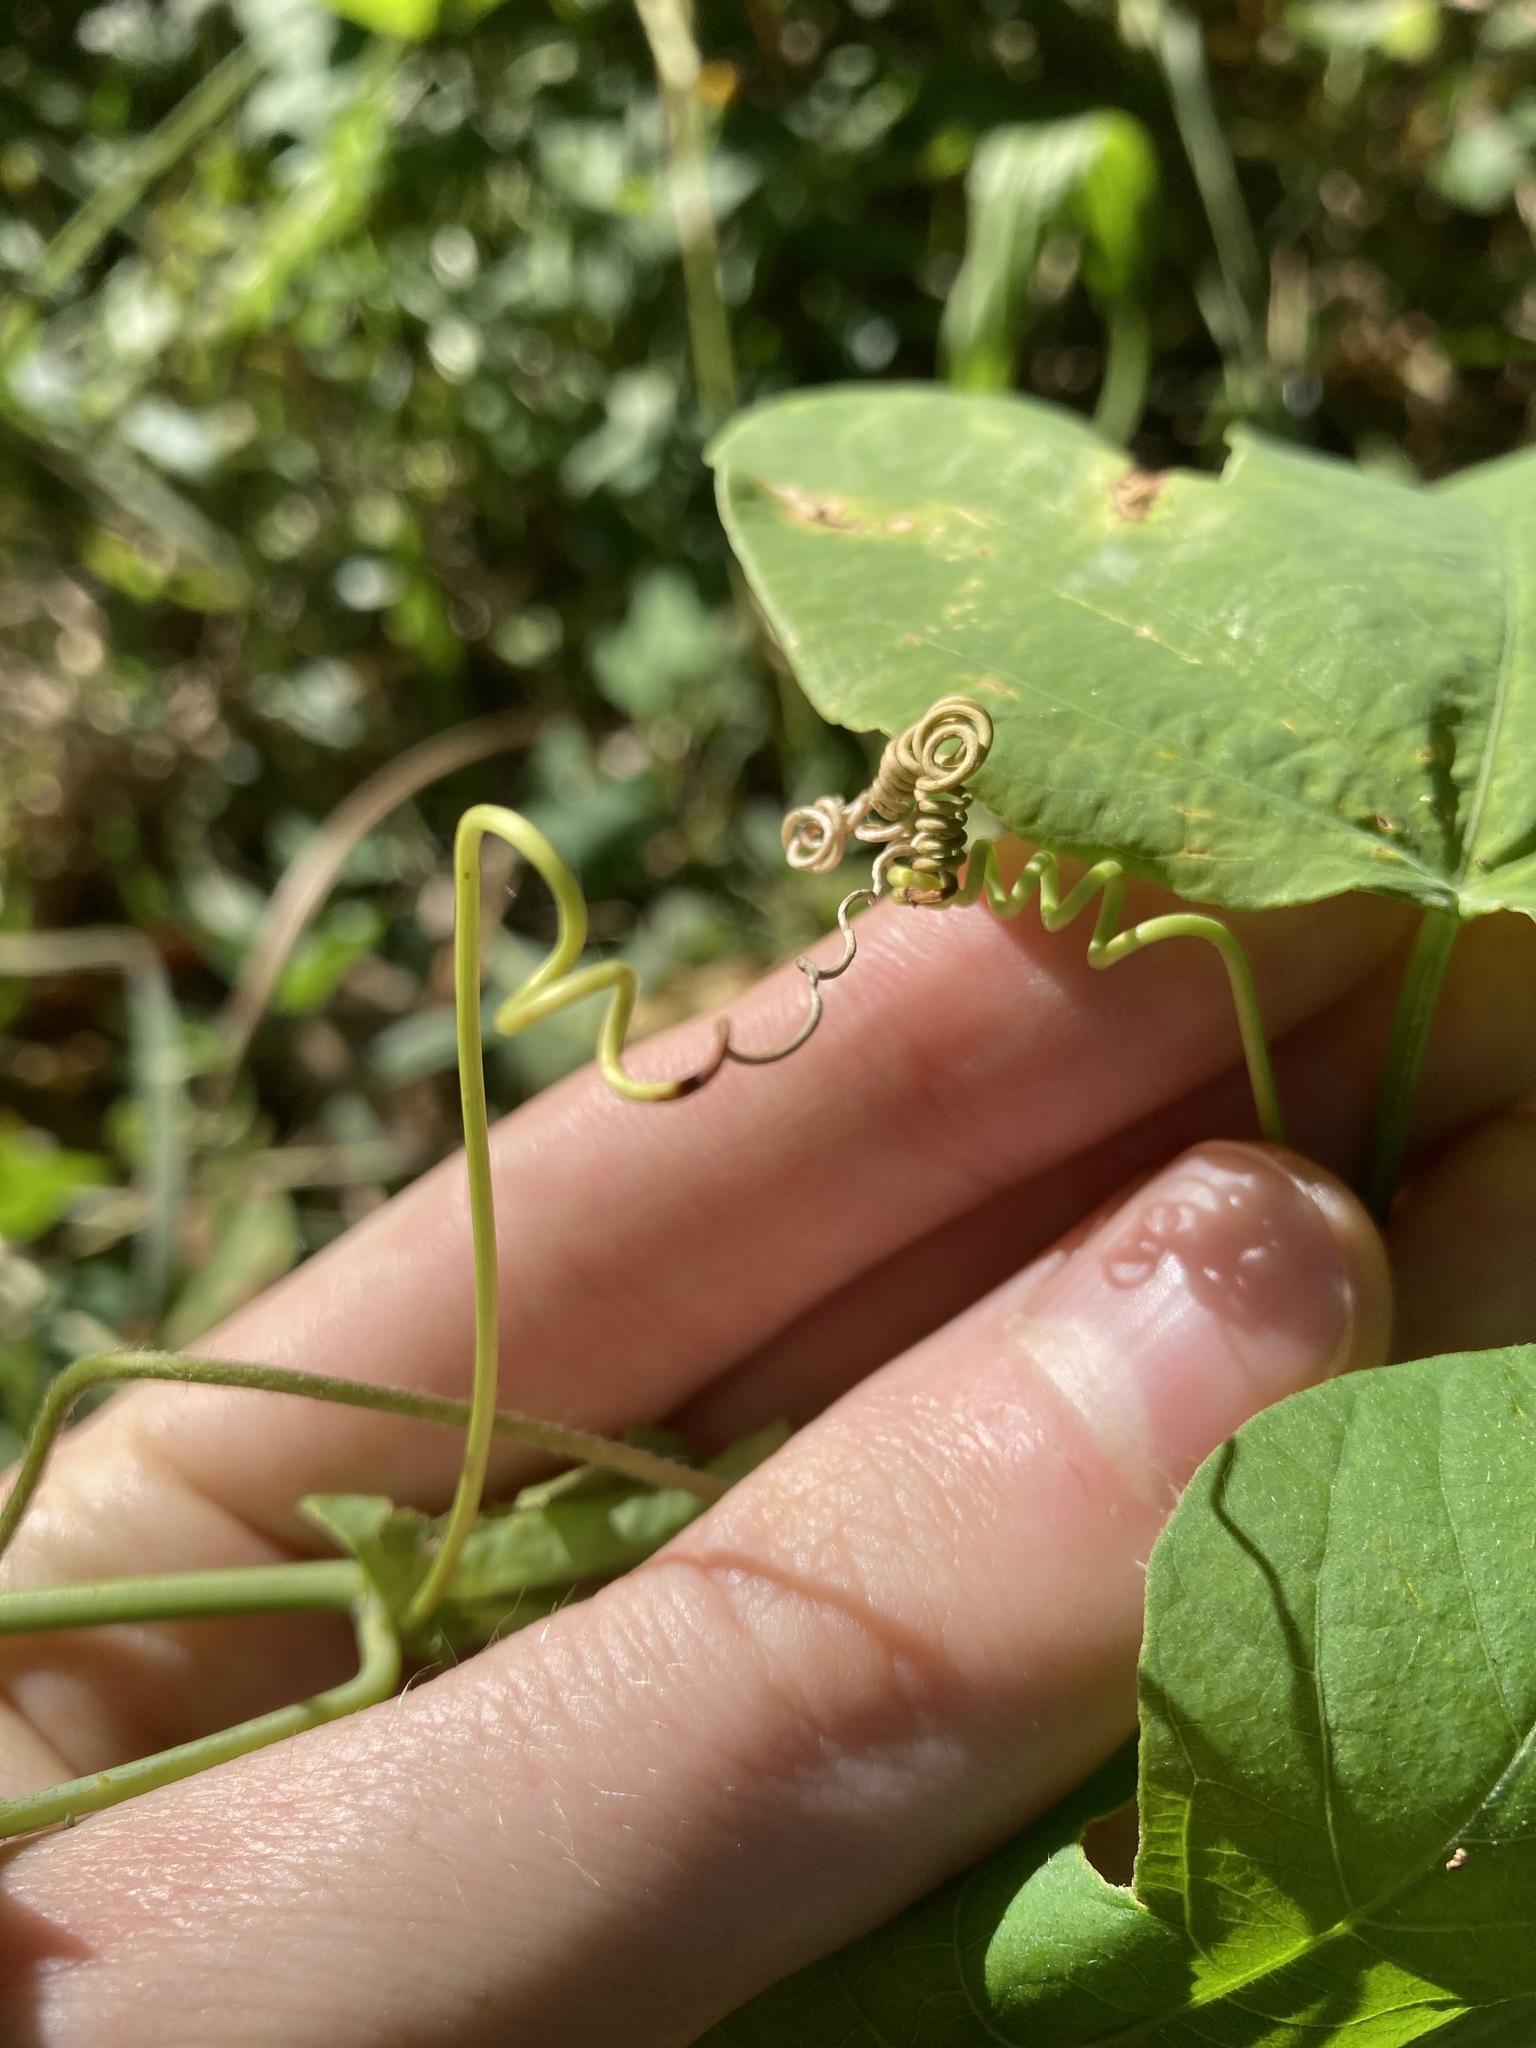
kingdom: Plantae
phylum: Tracheophyta
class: Magnoliopsida
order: Malpighiales
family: Passifloraceae
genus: Passiflora
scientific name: Passiflora subpeltata
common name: White passionflower
